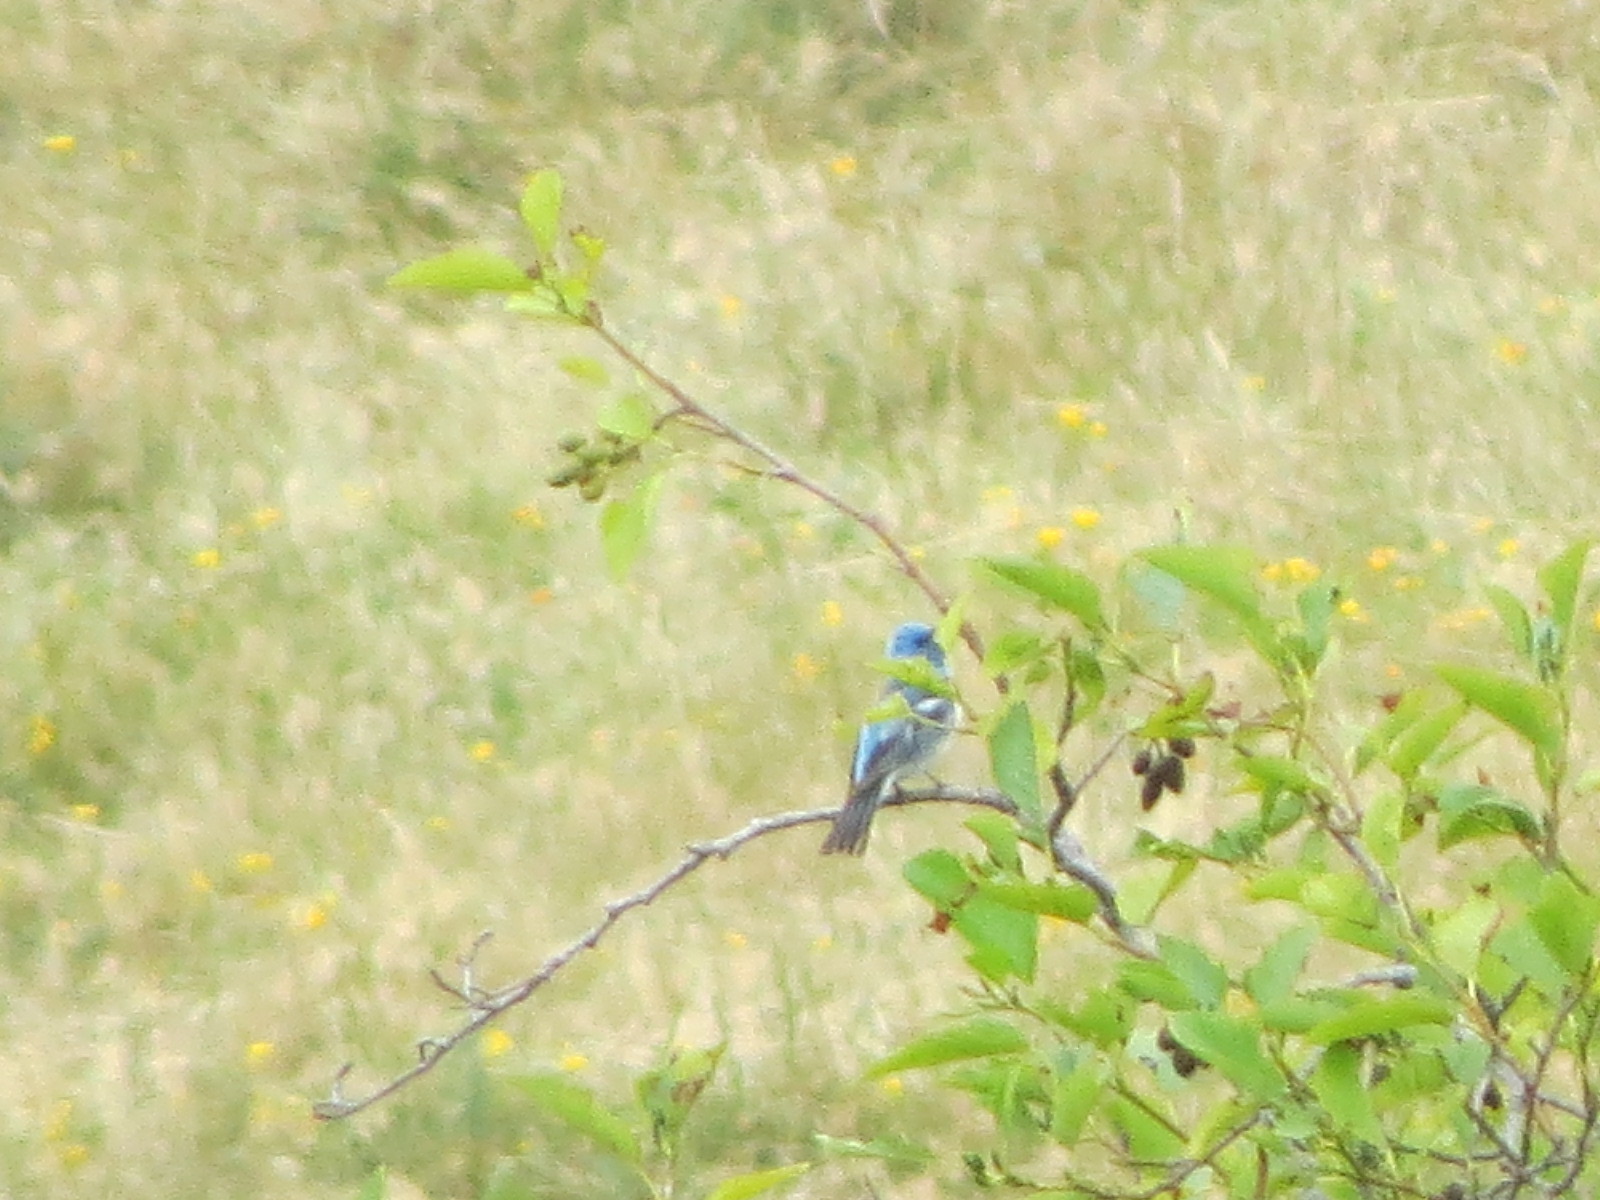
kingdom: Animalia
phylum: Chordata
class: Aves
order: Passeriformes
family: Cardinalidae
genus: Passerina
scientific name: Passerina amoena
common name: Lazuli bunting
